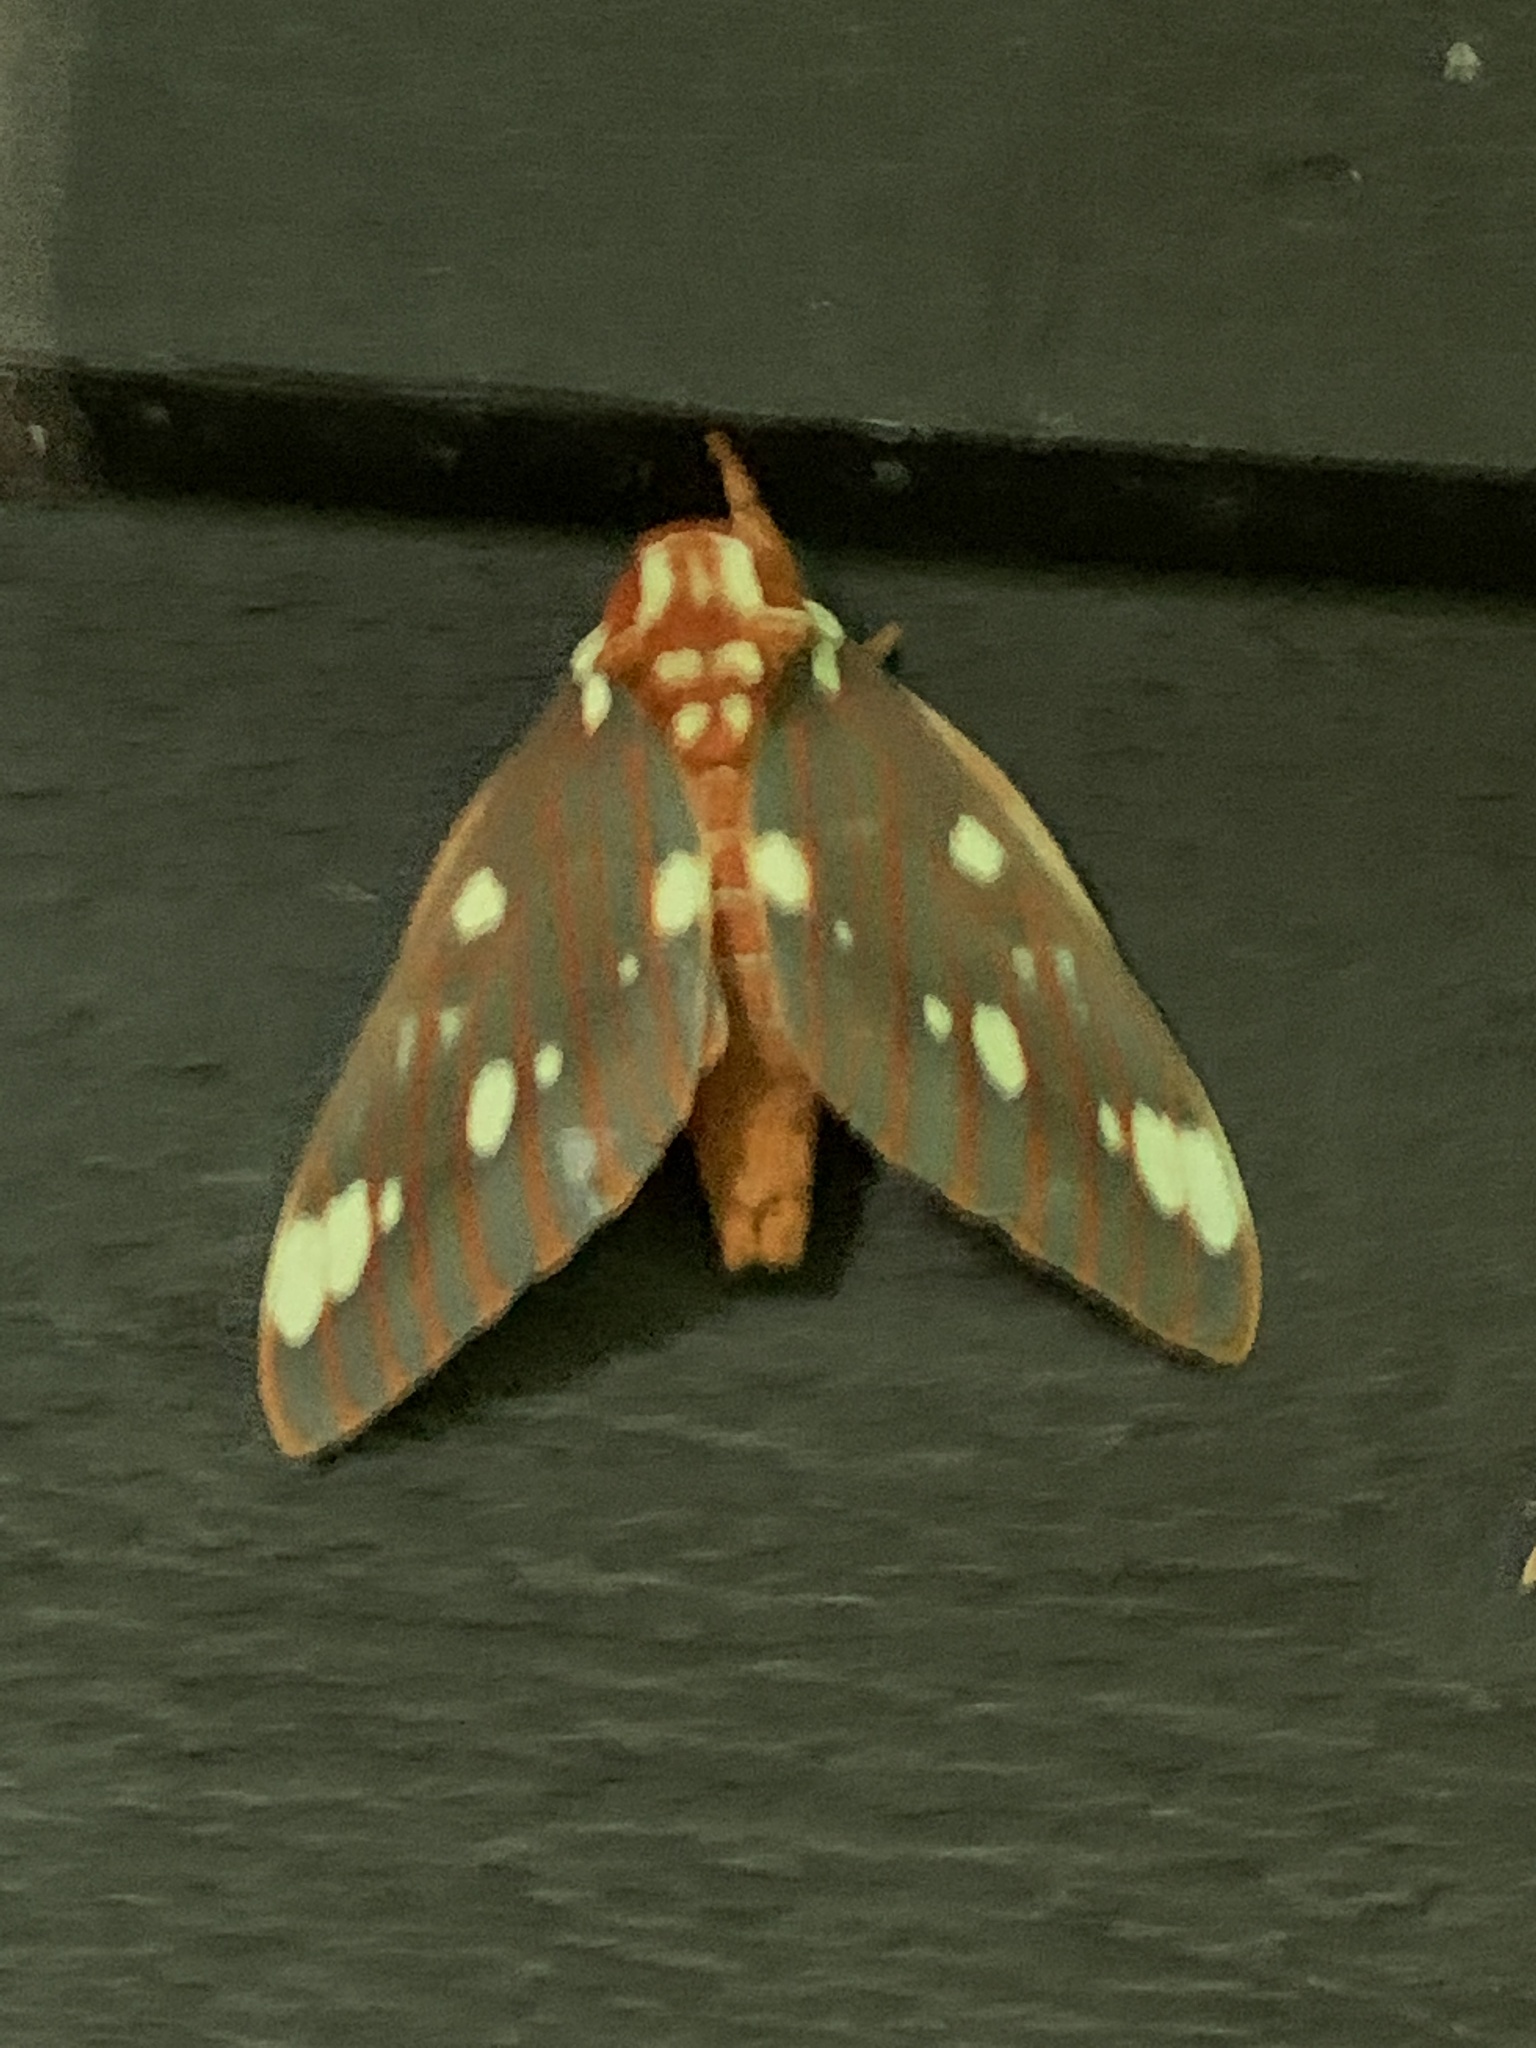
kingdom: Animalia
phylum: Arthropoda
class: Insecta
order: Lepidoptera
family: Saturniidae
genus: Citheronia
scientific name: Citheronia regalis
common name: Hickory horned devil
